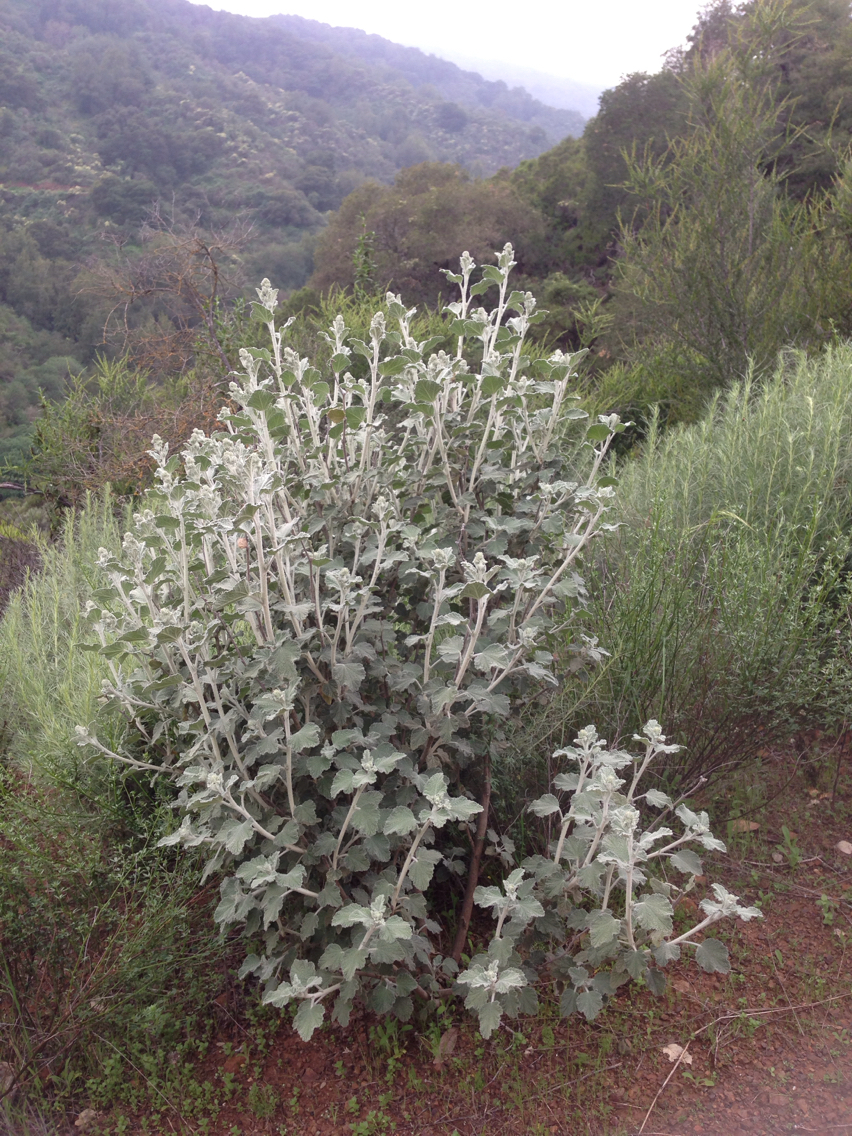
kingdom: Plantae
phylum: Tracheophyta
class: Magnoliopsida
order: Malvales
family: Malvaceae
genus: Malacothamnus
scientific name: Malacothamnus fasciculatus
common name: Sant cruz island bush-mallow
